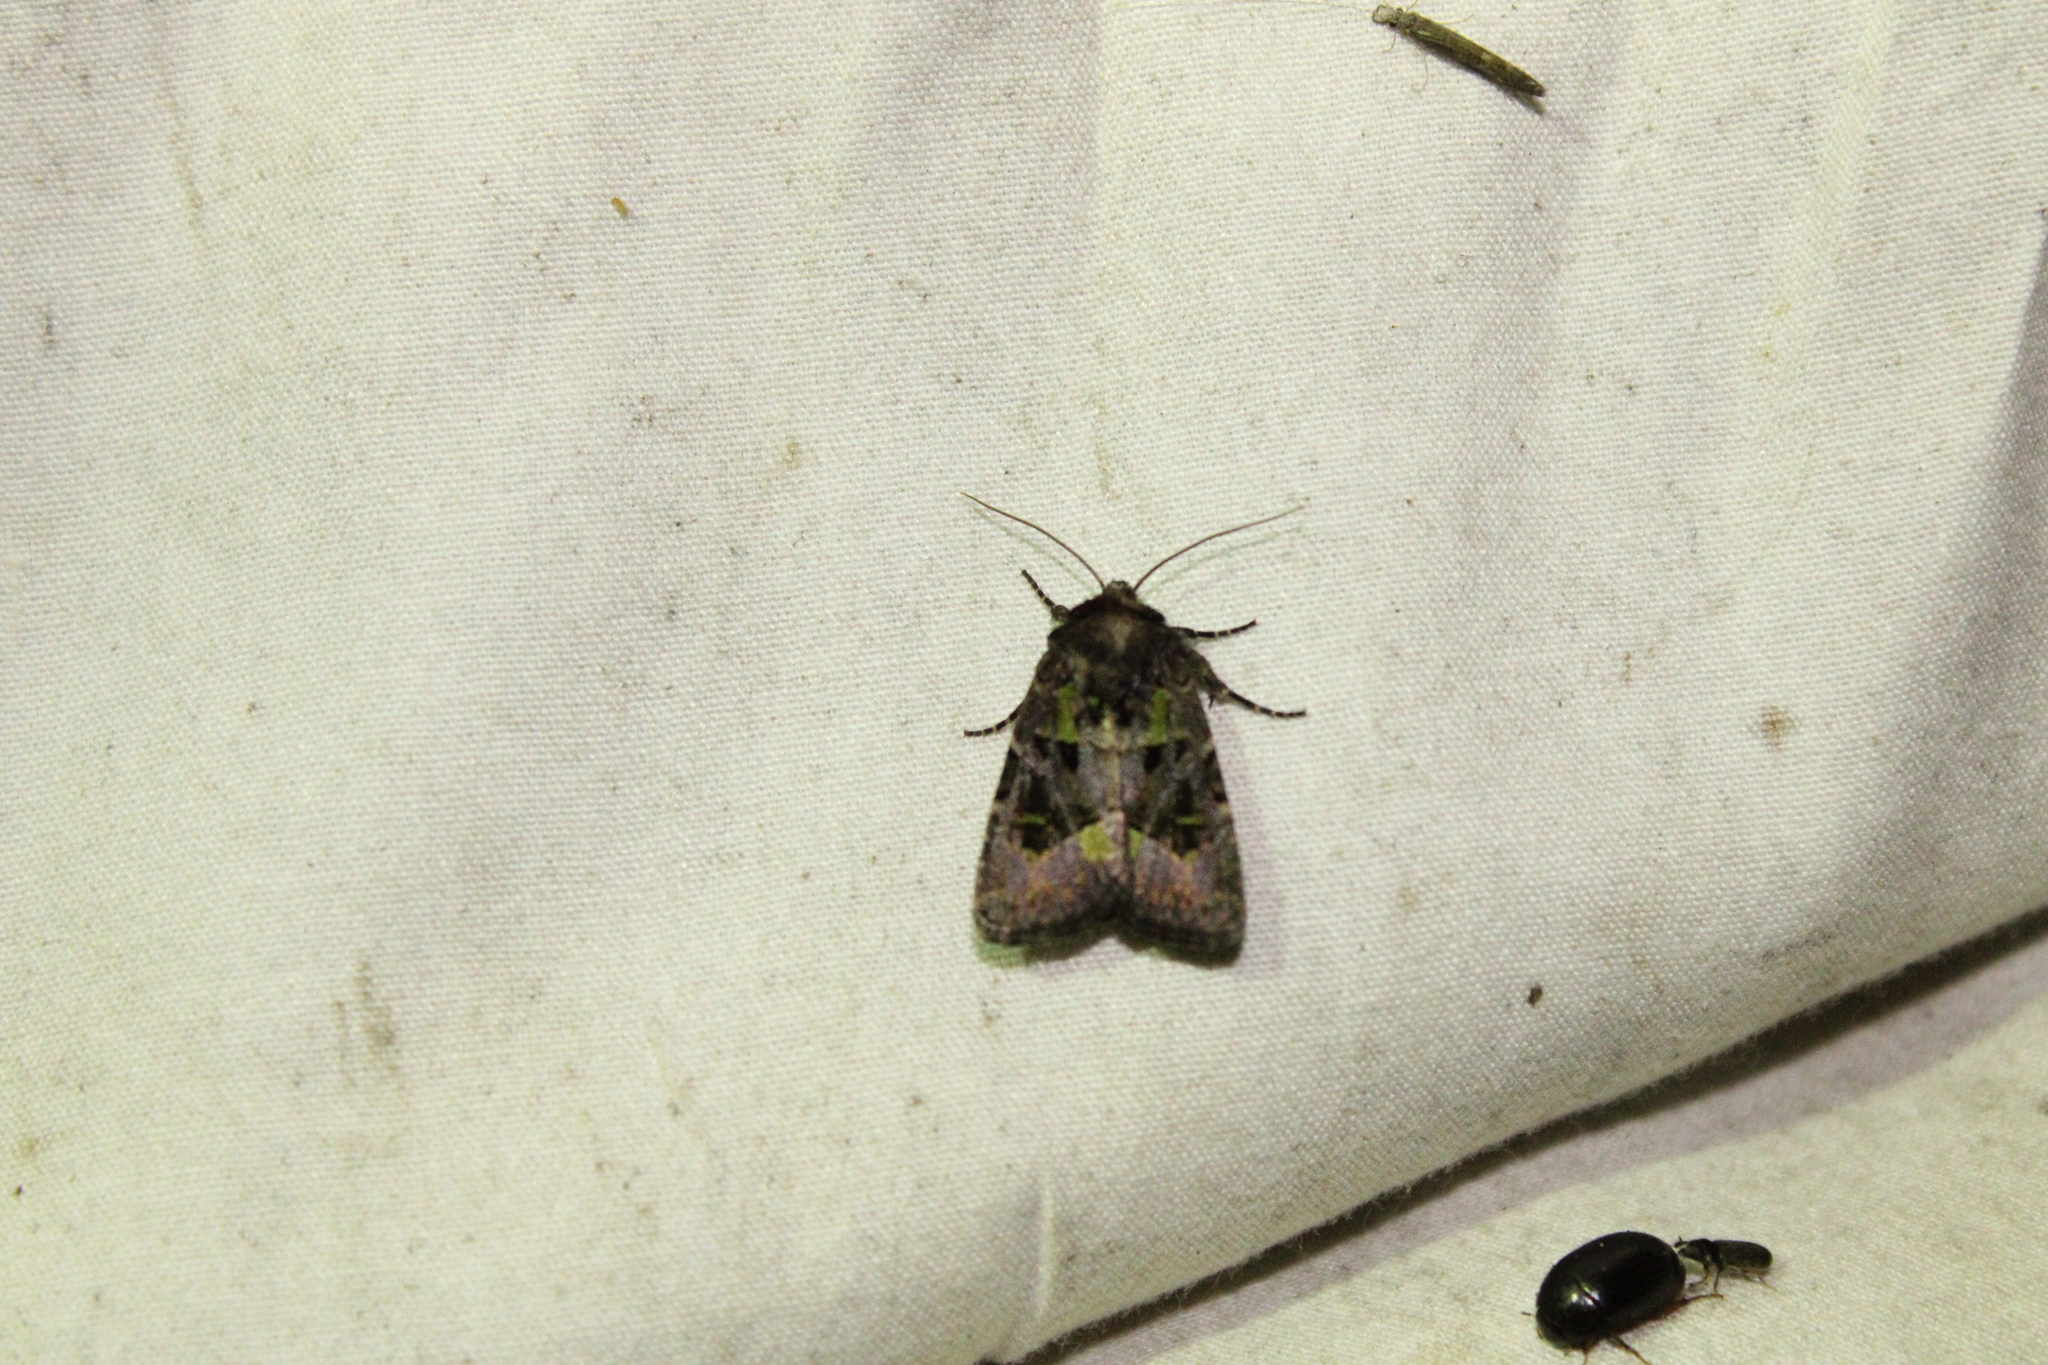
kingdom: Animalia
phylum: Arthropoda
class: Insecta
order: Lepidoptera
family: Noctuidae
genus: Lacinipolia
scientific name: Lacinipolia renigera
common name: Kidney-spotted minor
